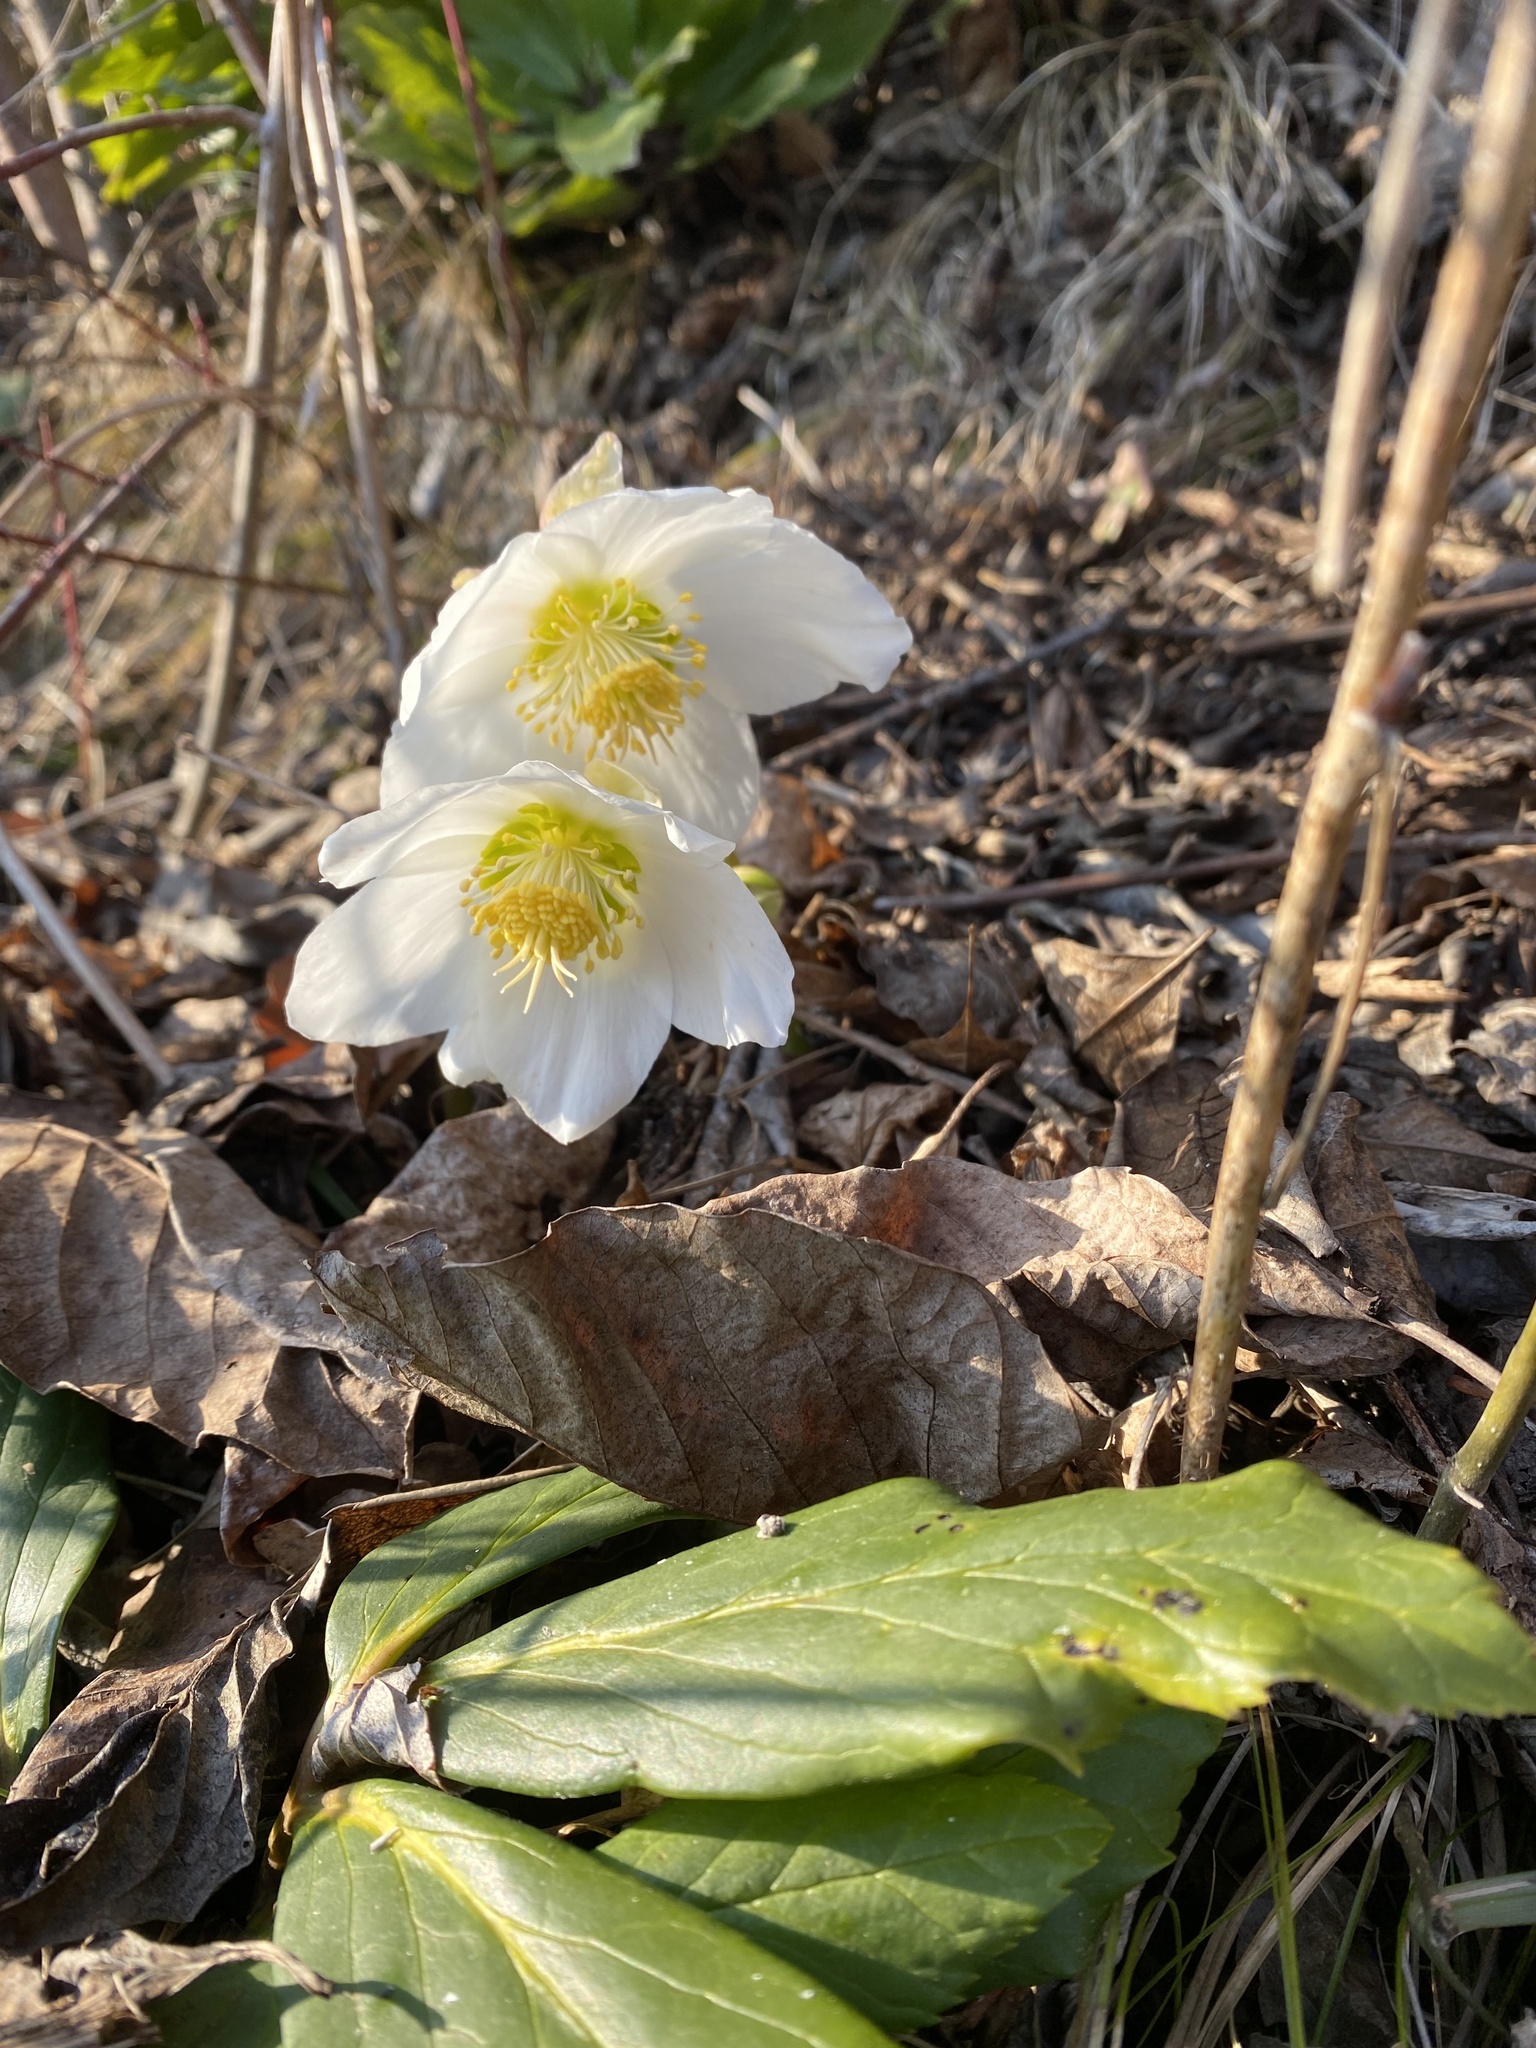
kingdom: Plantae
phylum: Tracheophyta
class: Magnoliopsida
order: Ranunculales
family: Ranunculaceae
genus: Helleborus
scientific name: Helleborus niger
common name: Black hellebore
